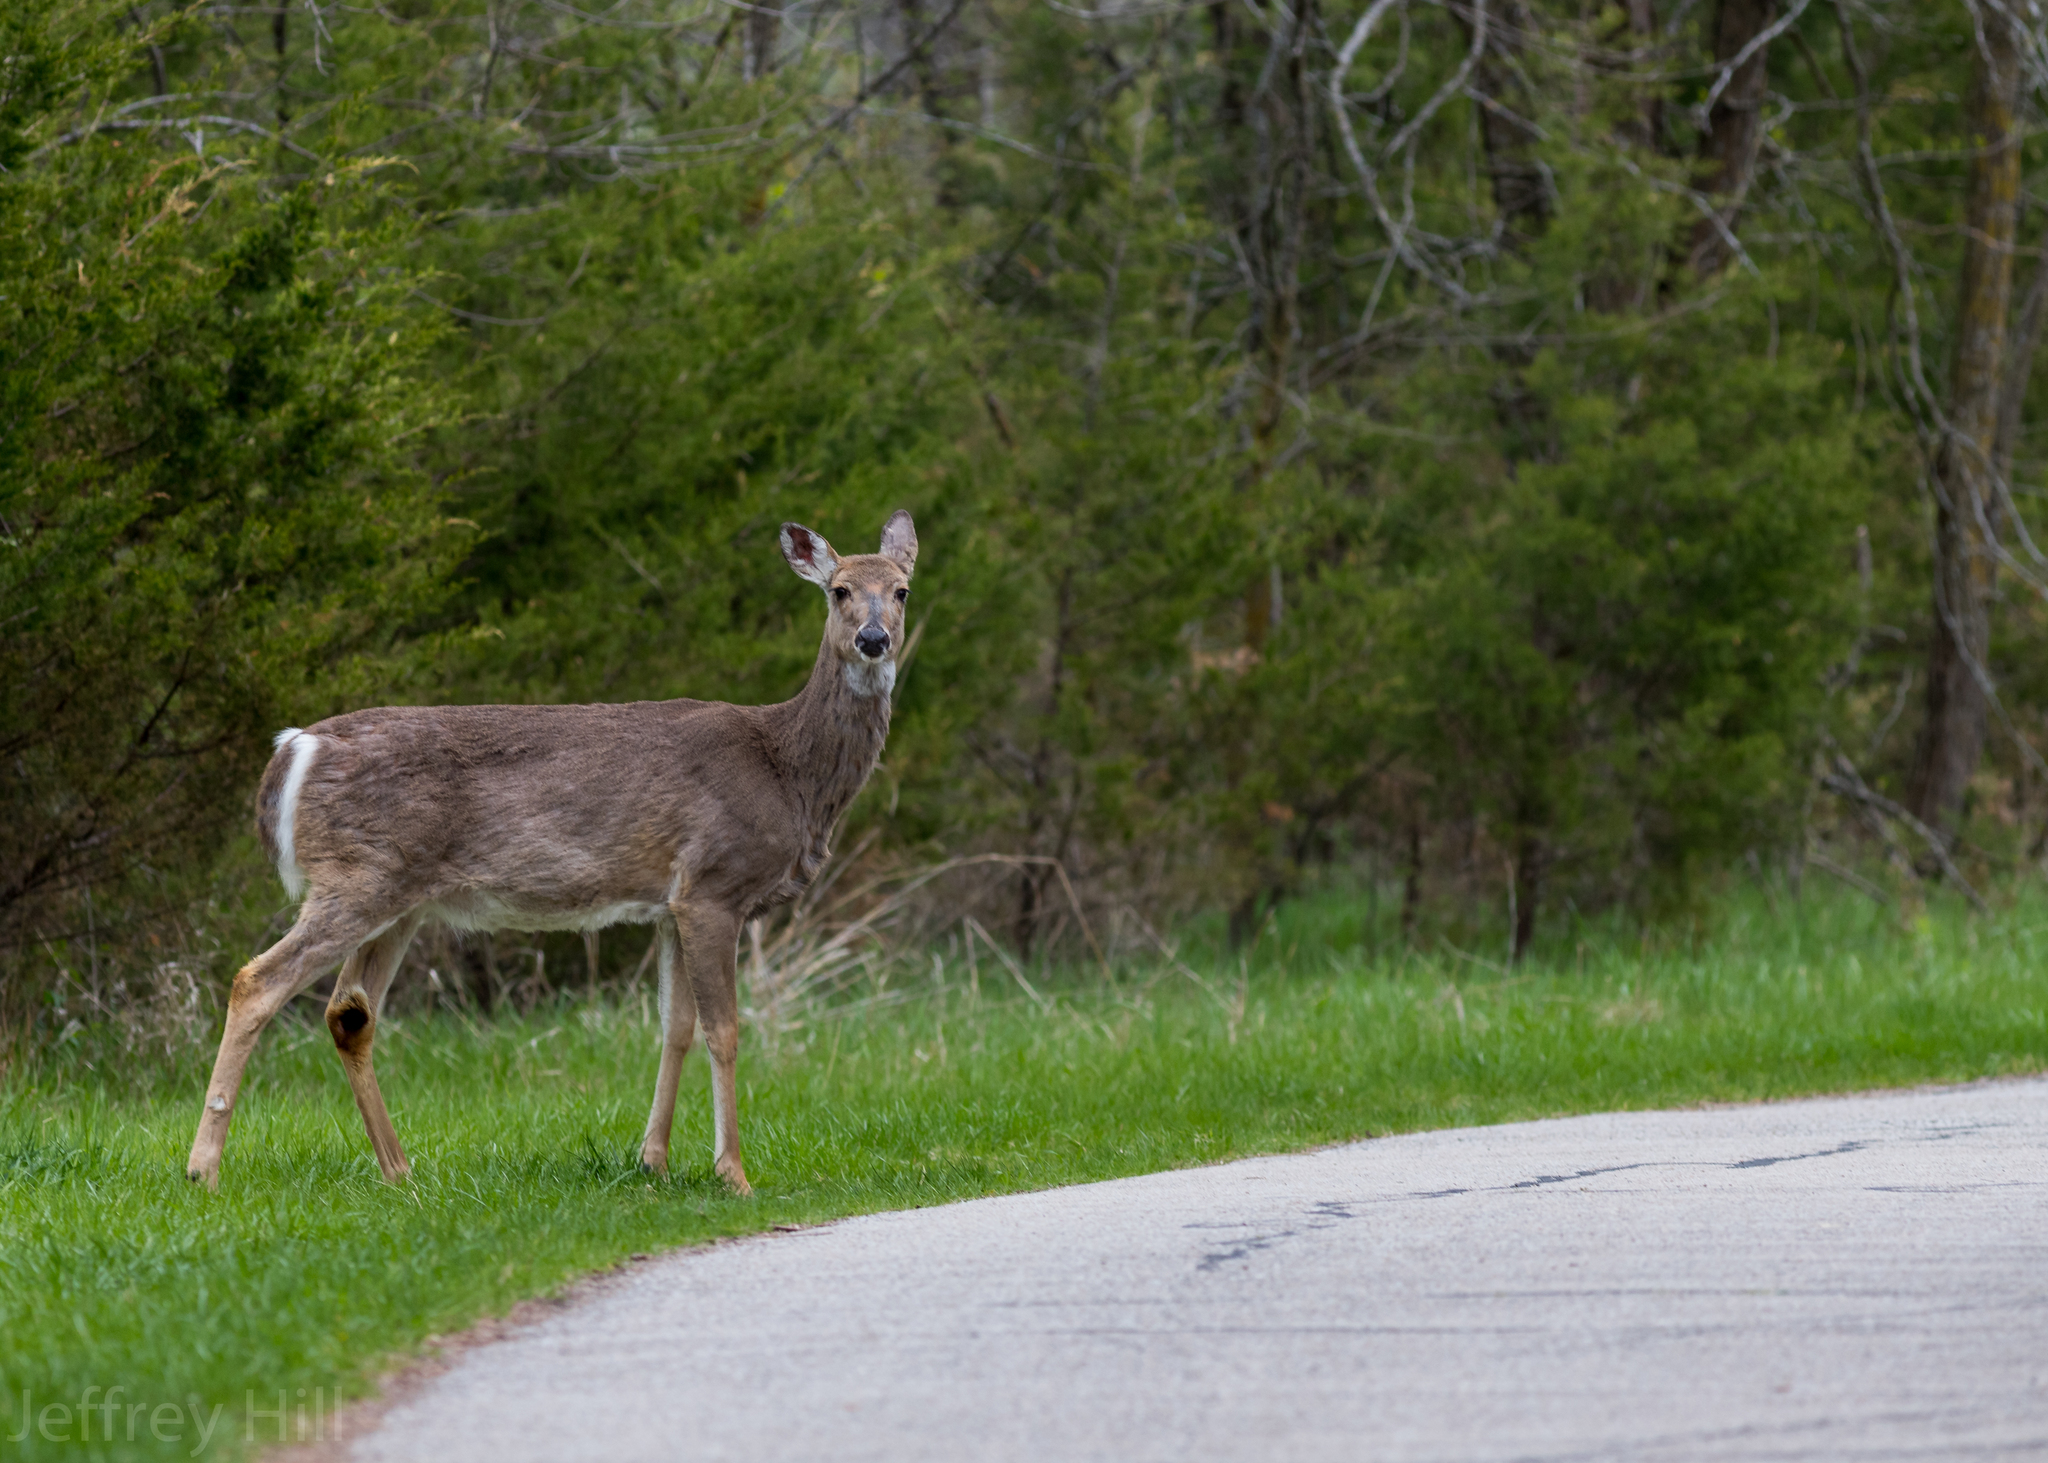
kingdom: Animalia
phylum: Chordata
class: Mammalia
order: Artiodactyla
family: Cervidae
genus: Odocoileus
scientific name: Odocoileus virginianus
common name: White-tailed deer
